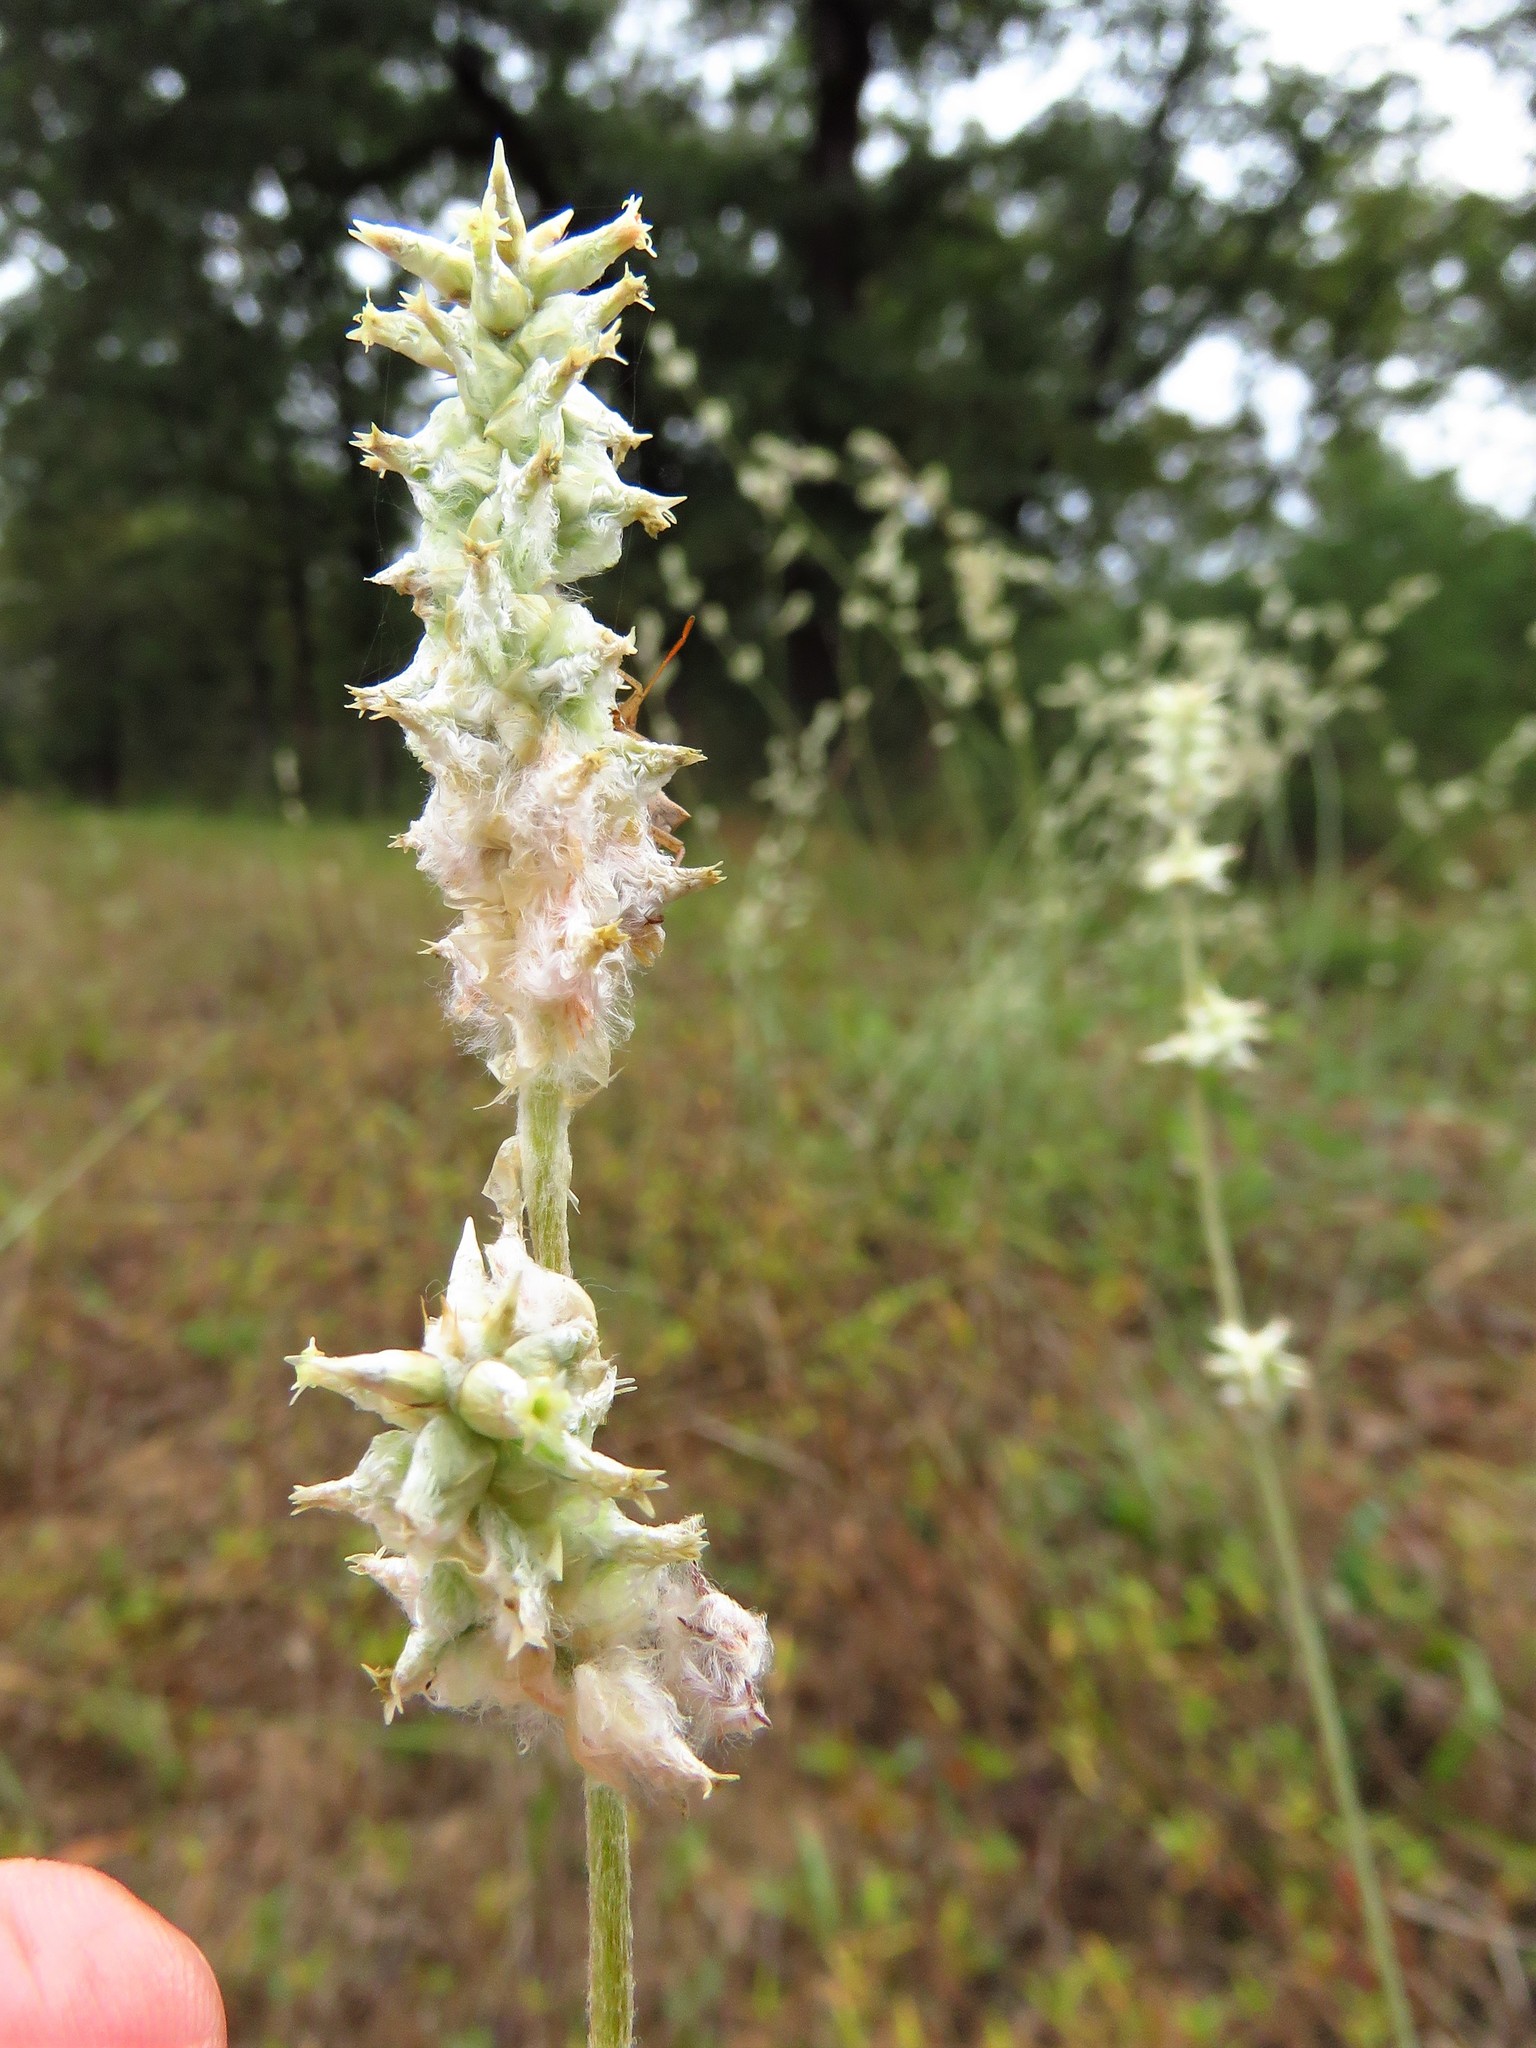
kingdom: Plantae
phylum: Tracheophyta
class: Magnoliopsida
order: Caryophyllales
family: Amaranthaceae
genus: Froelichia
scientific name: Froelichia floridana
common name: Florida snake-cotton
